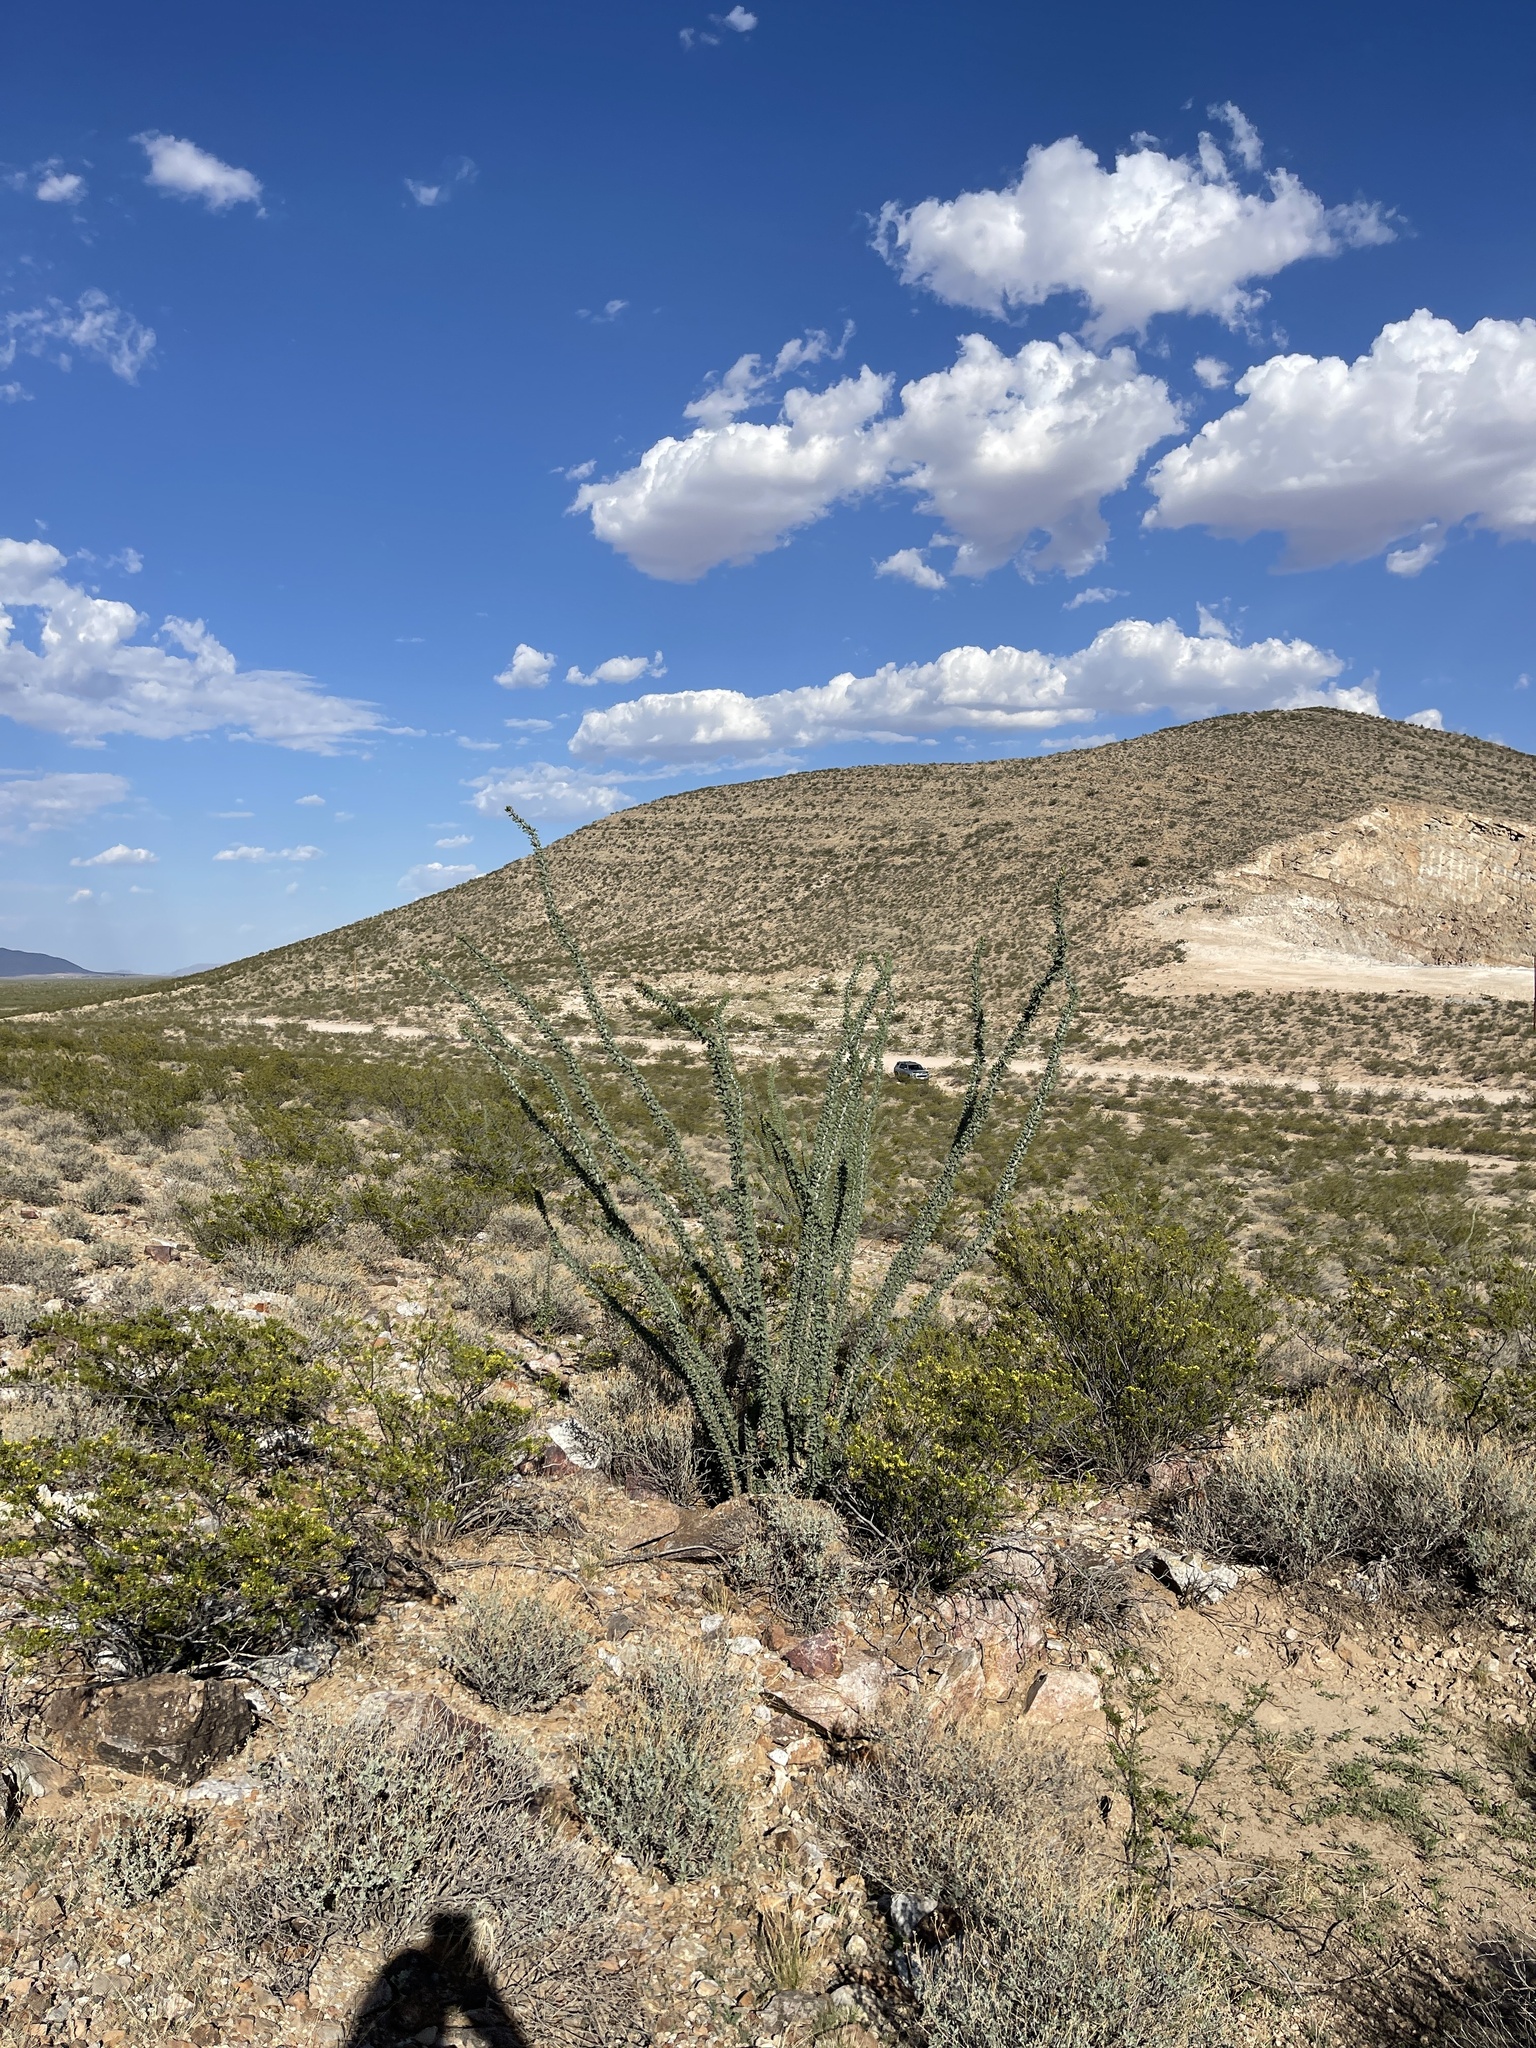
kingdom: Plantae
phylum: Tracheophyta
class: Magnoliopsida
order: Ericales
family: Fouquieriaceae
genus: Fouquieria
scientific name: Fouquieria splendens
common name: Vine-cactus
